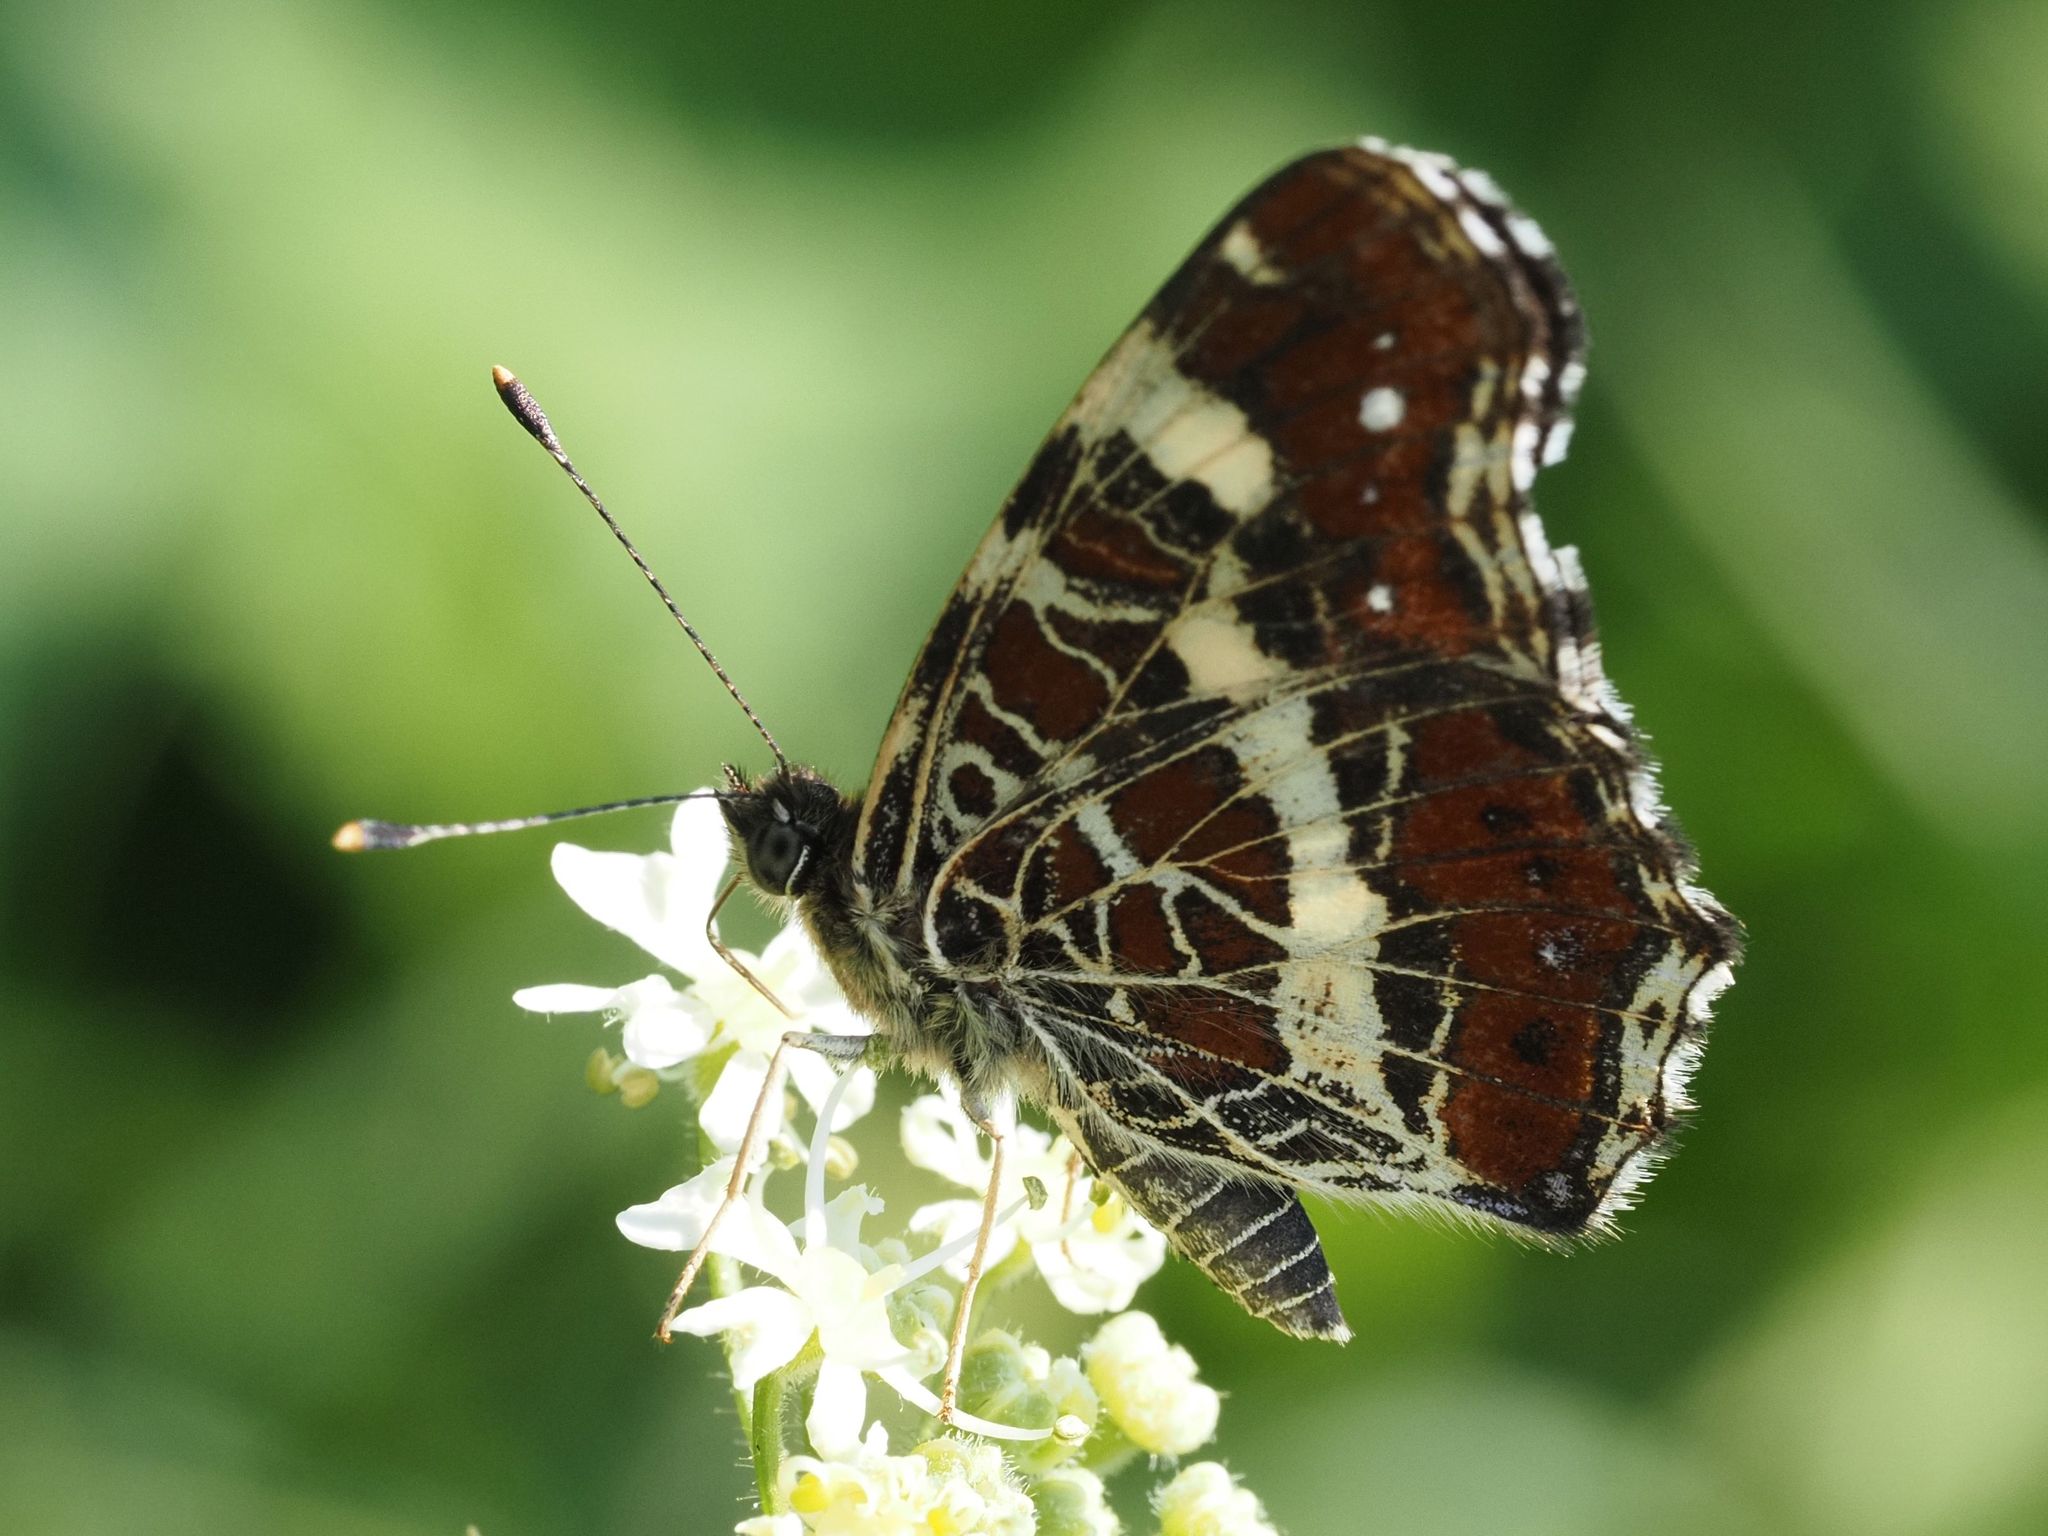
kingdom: Animalia
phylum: Arthropoda
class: Insecta
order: Lepidoptera
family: Nymphalidae
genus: Araschnia
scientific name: Araschnia levana
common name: Map butterfly
